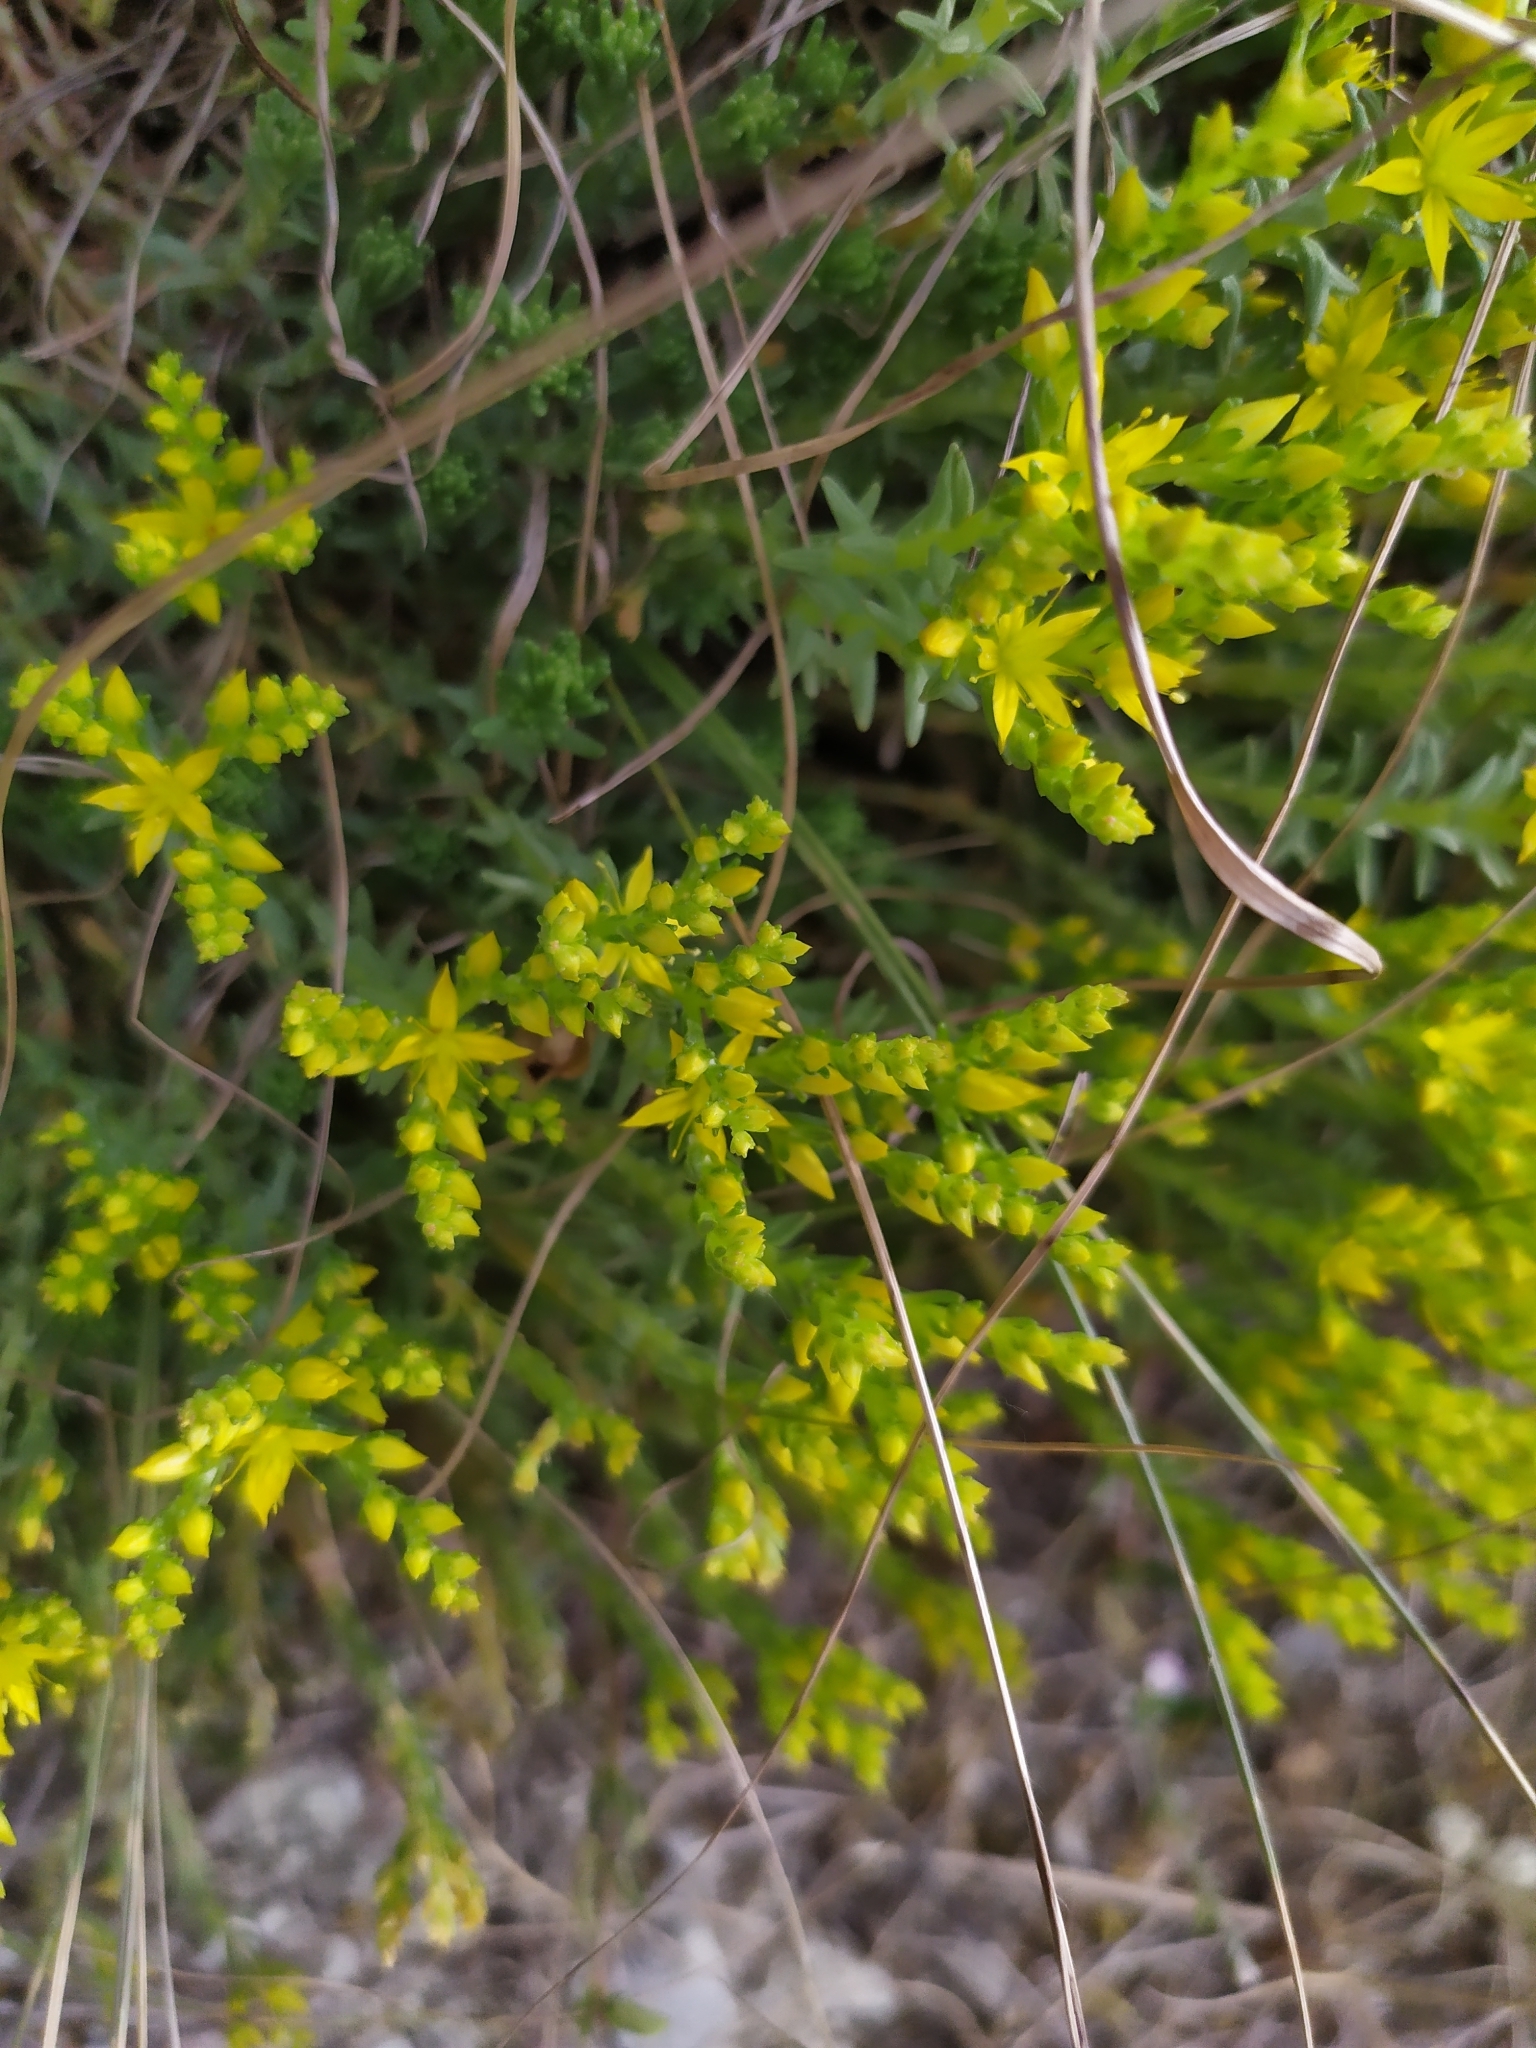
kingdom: Plantae
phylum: Tracheophyta
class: Magnoliopsida
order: Saxifragales
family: Crassulaceae
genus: Sedum
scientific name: Sedum sexangulare
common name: Tasteless stonecrop
